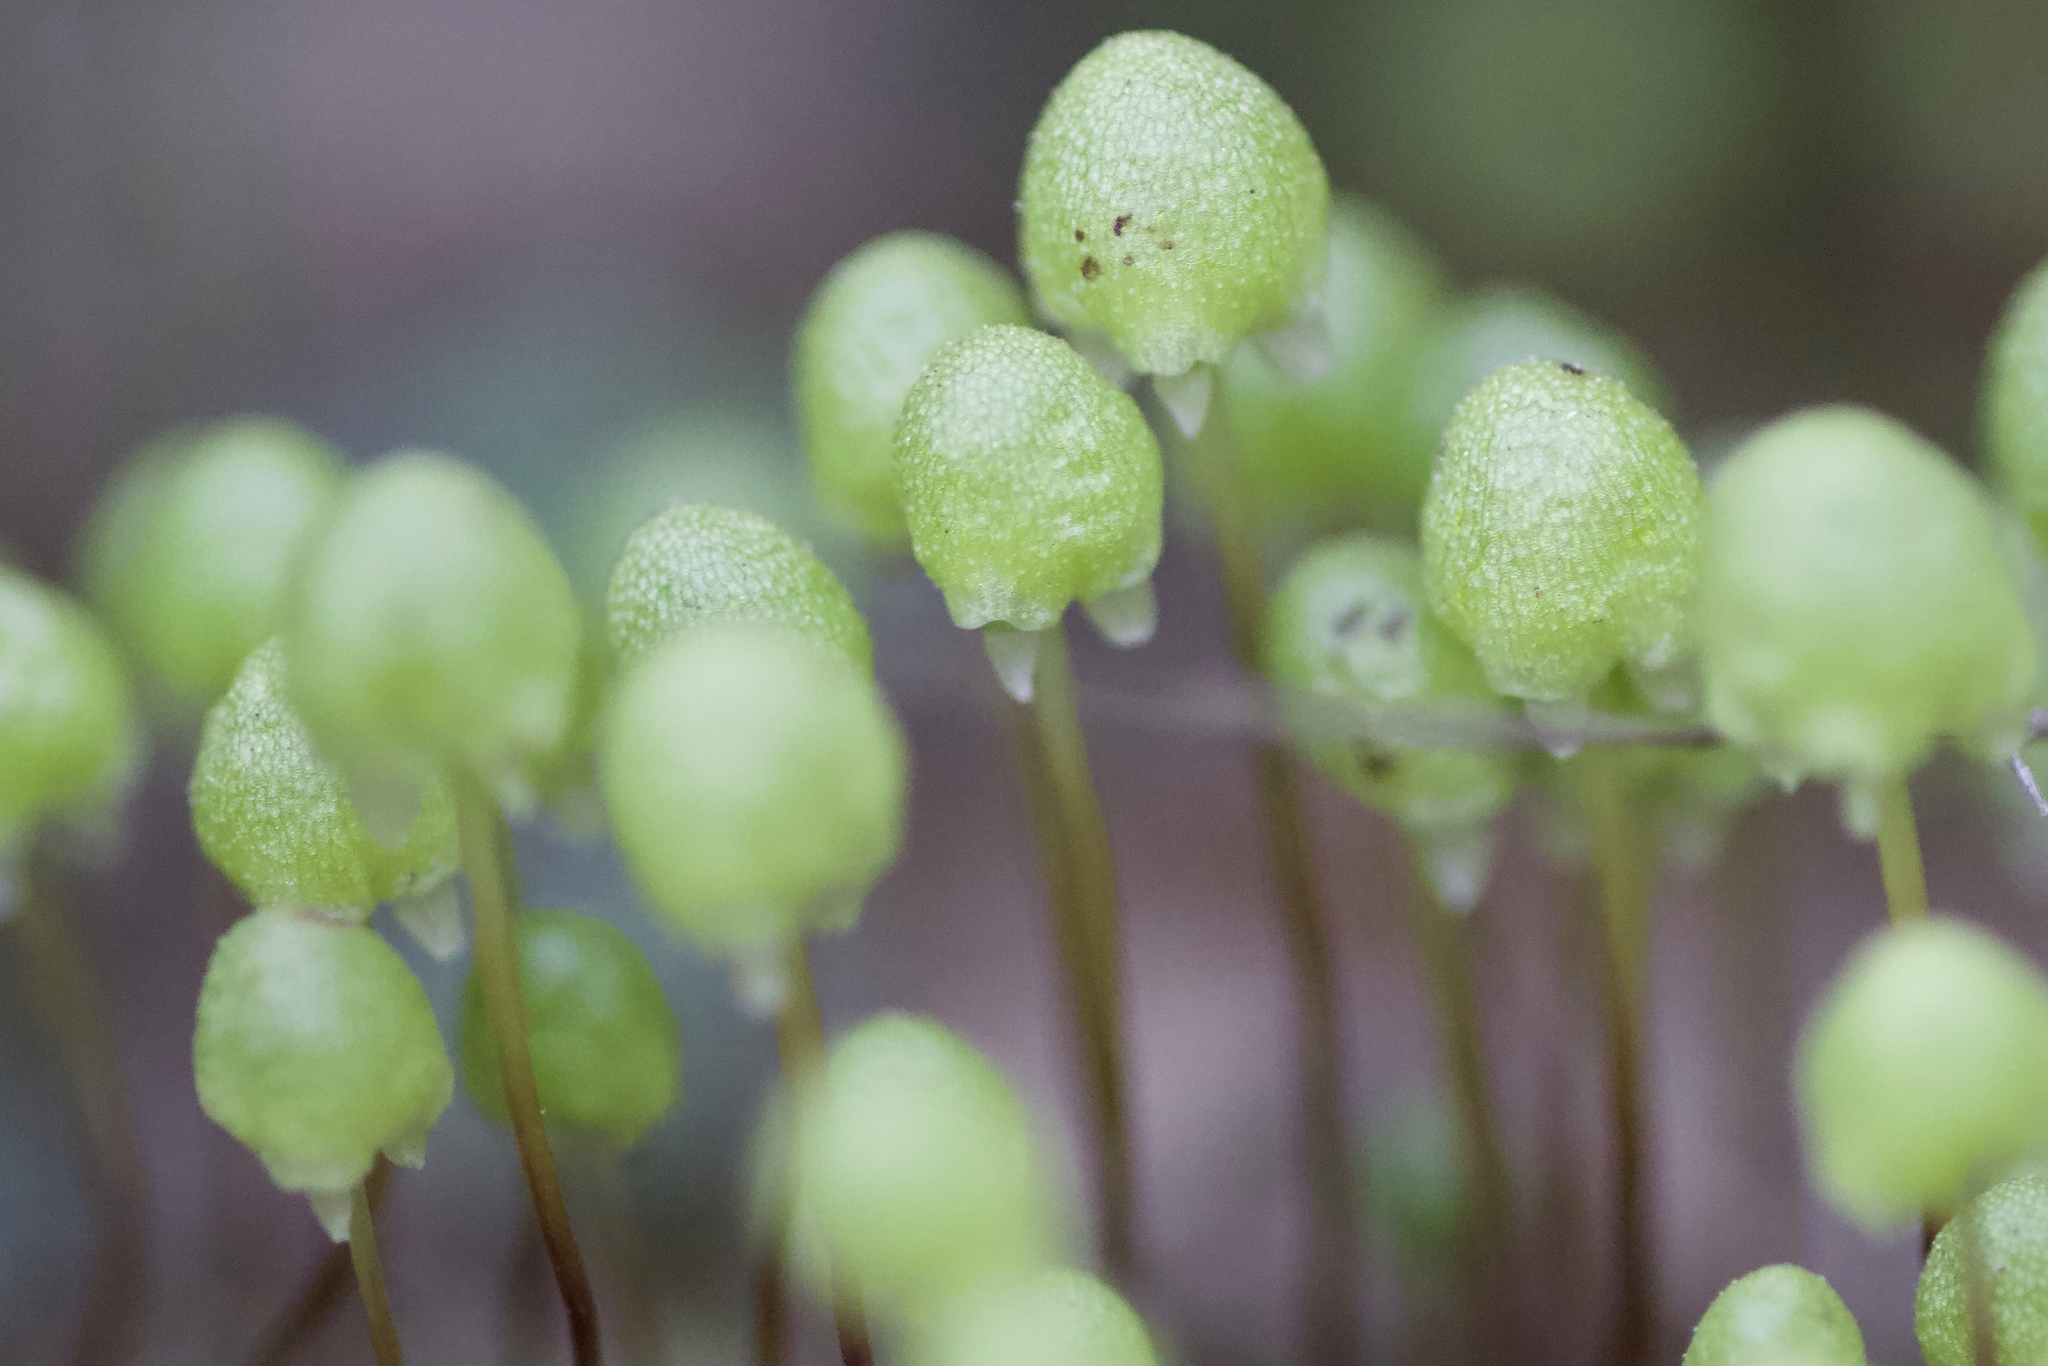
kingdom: Plantae
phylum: Marchantiophyta
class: Marchantiopsida
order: Marchantiales
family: Aytoniaceae
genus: Asterella
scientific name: Asterella palmeri
